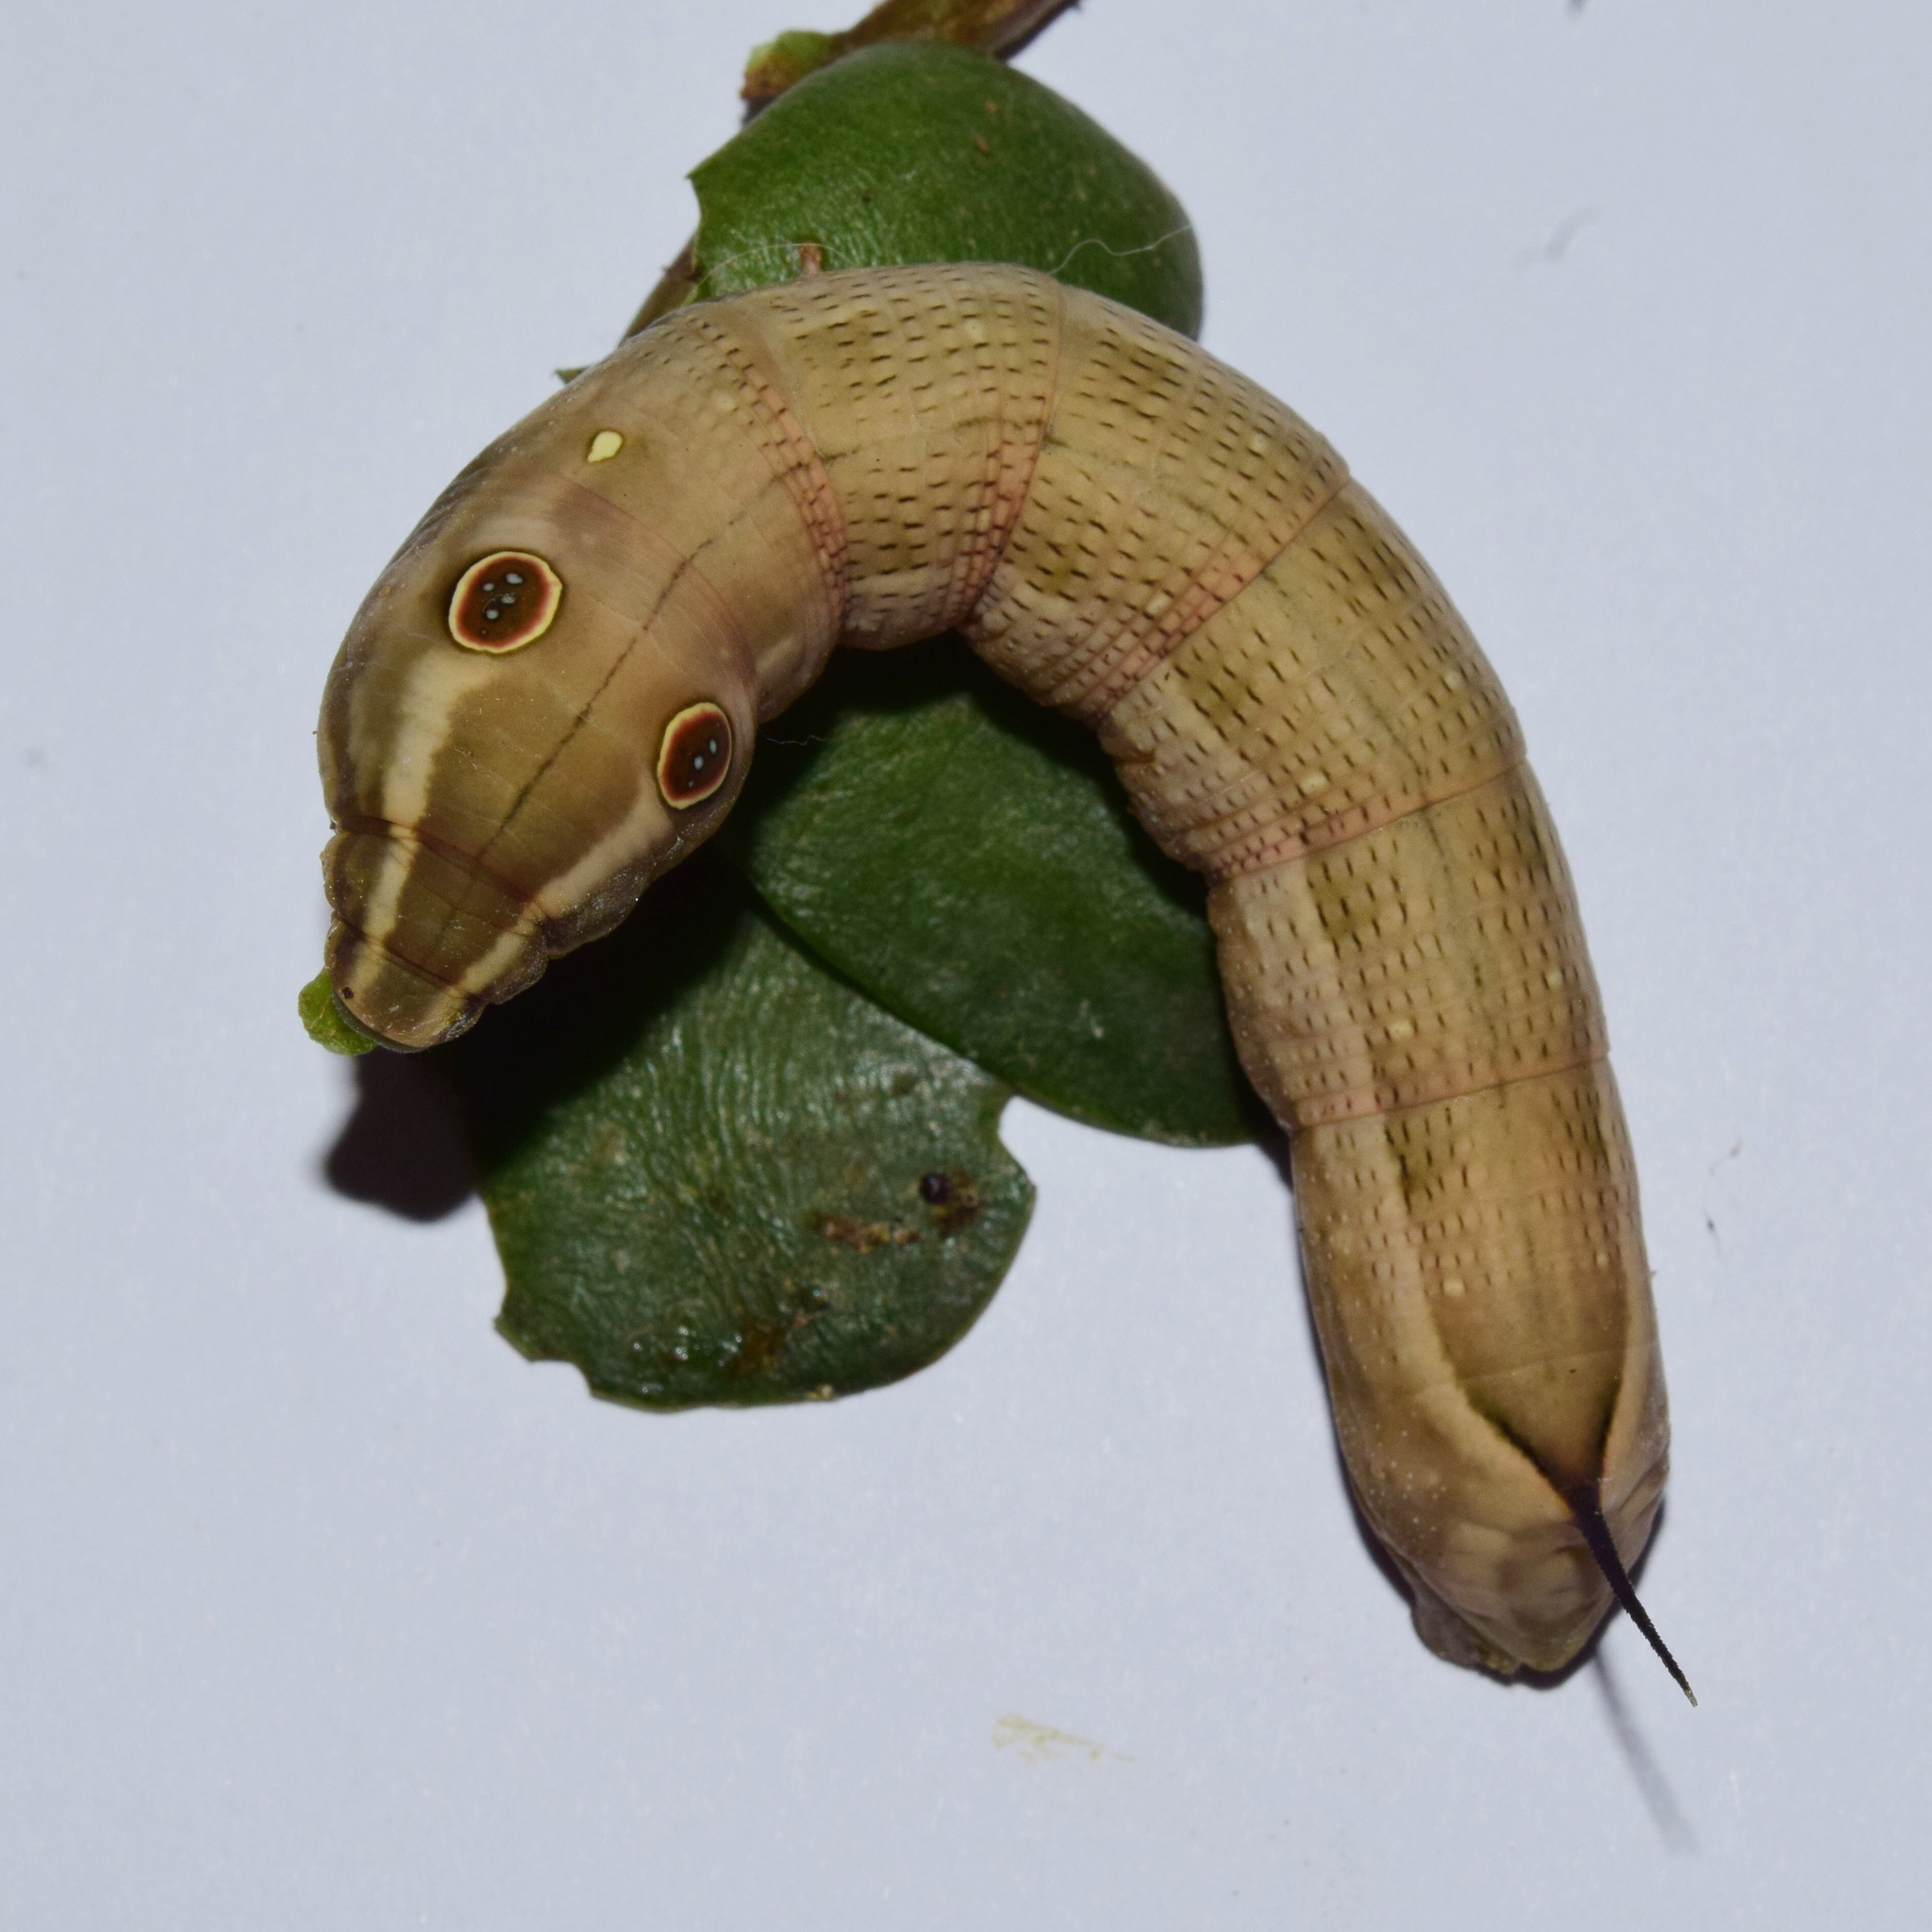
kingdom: Animalia
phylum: Arthropoda
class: Insecta
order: Lepidoptera
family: Sphingidae
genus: Hippotion
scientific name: Hippotion celerio
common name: Silver-striped hawk-moth
